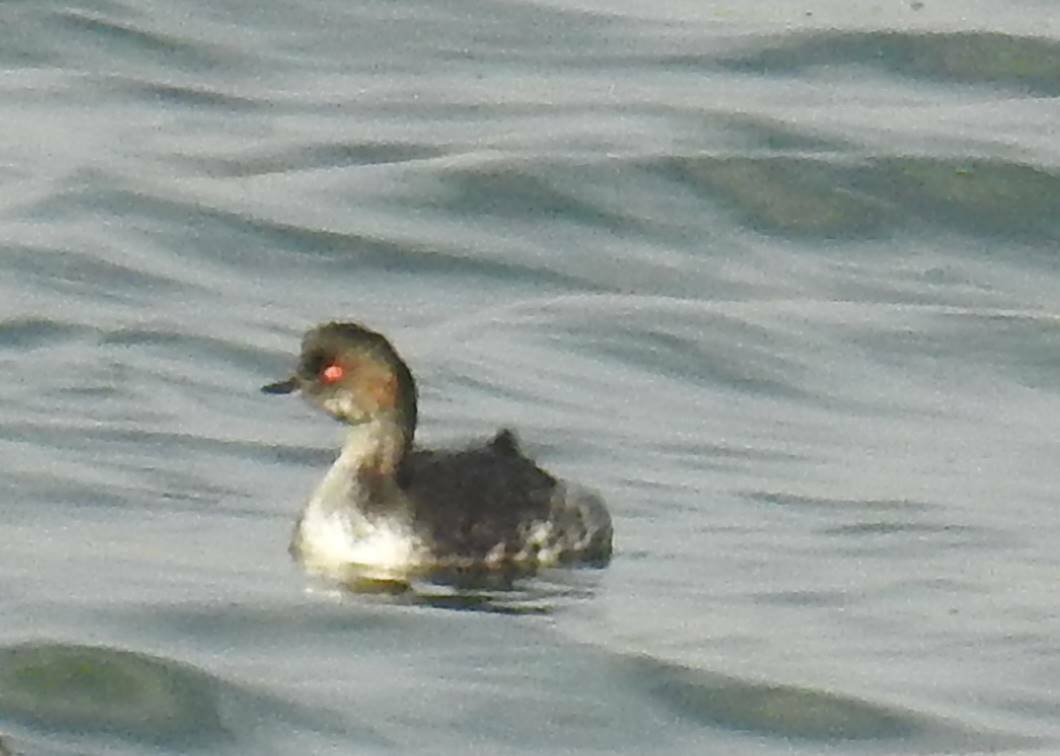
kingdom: Animalia
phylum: Chordata
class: Aves
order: Podicipediformes
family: Podicipedidae
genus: Podiceps
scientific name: Podiceps nigricollis
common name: Black-necked grebe
